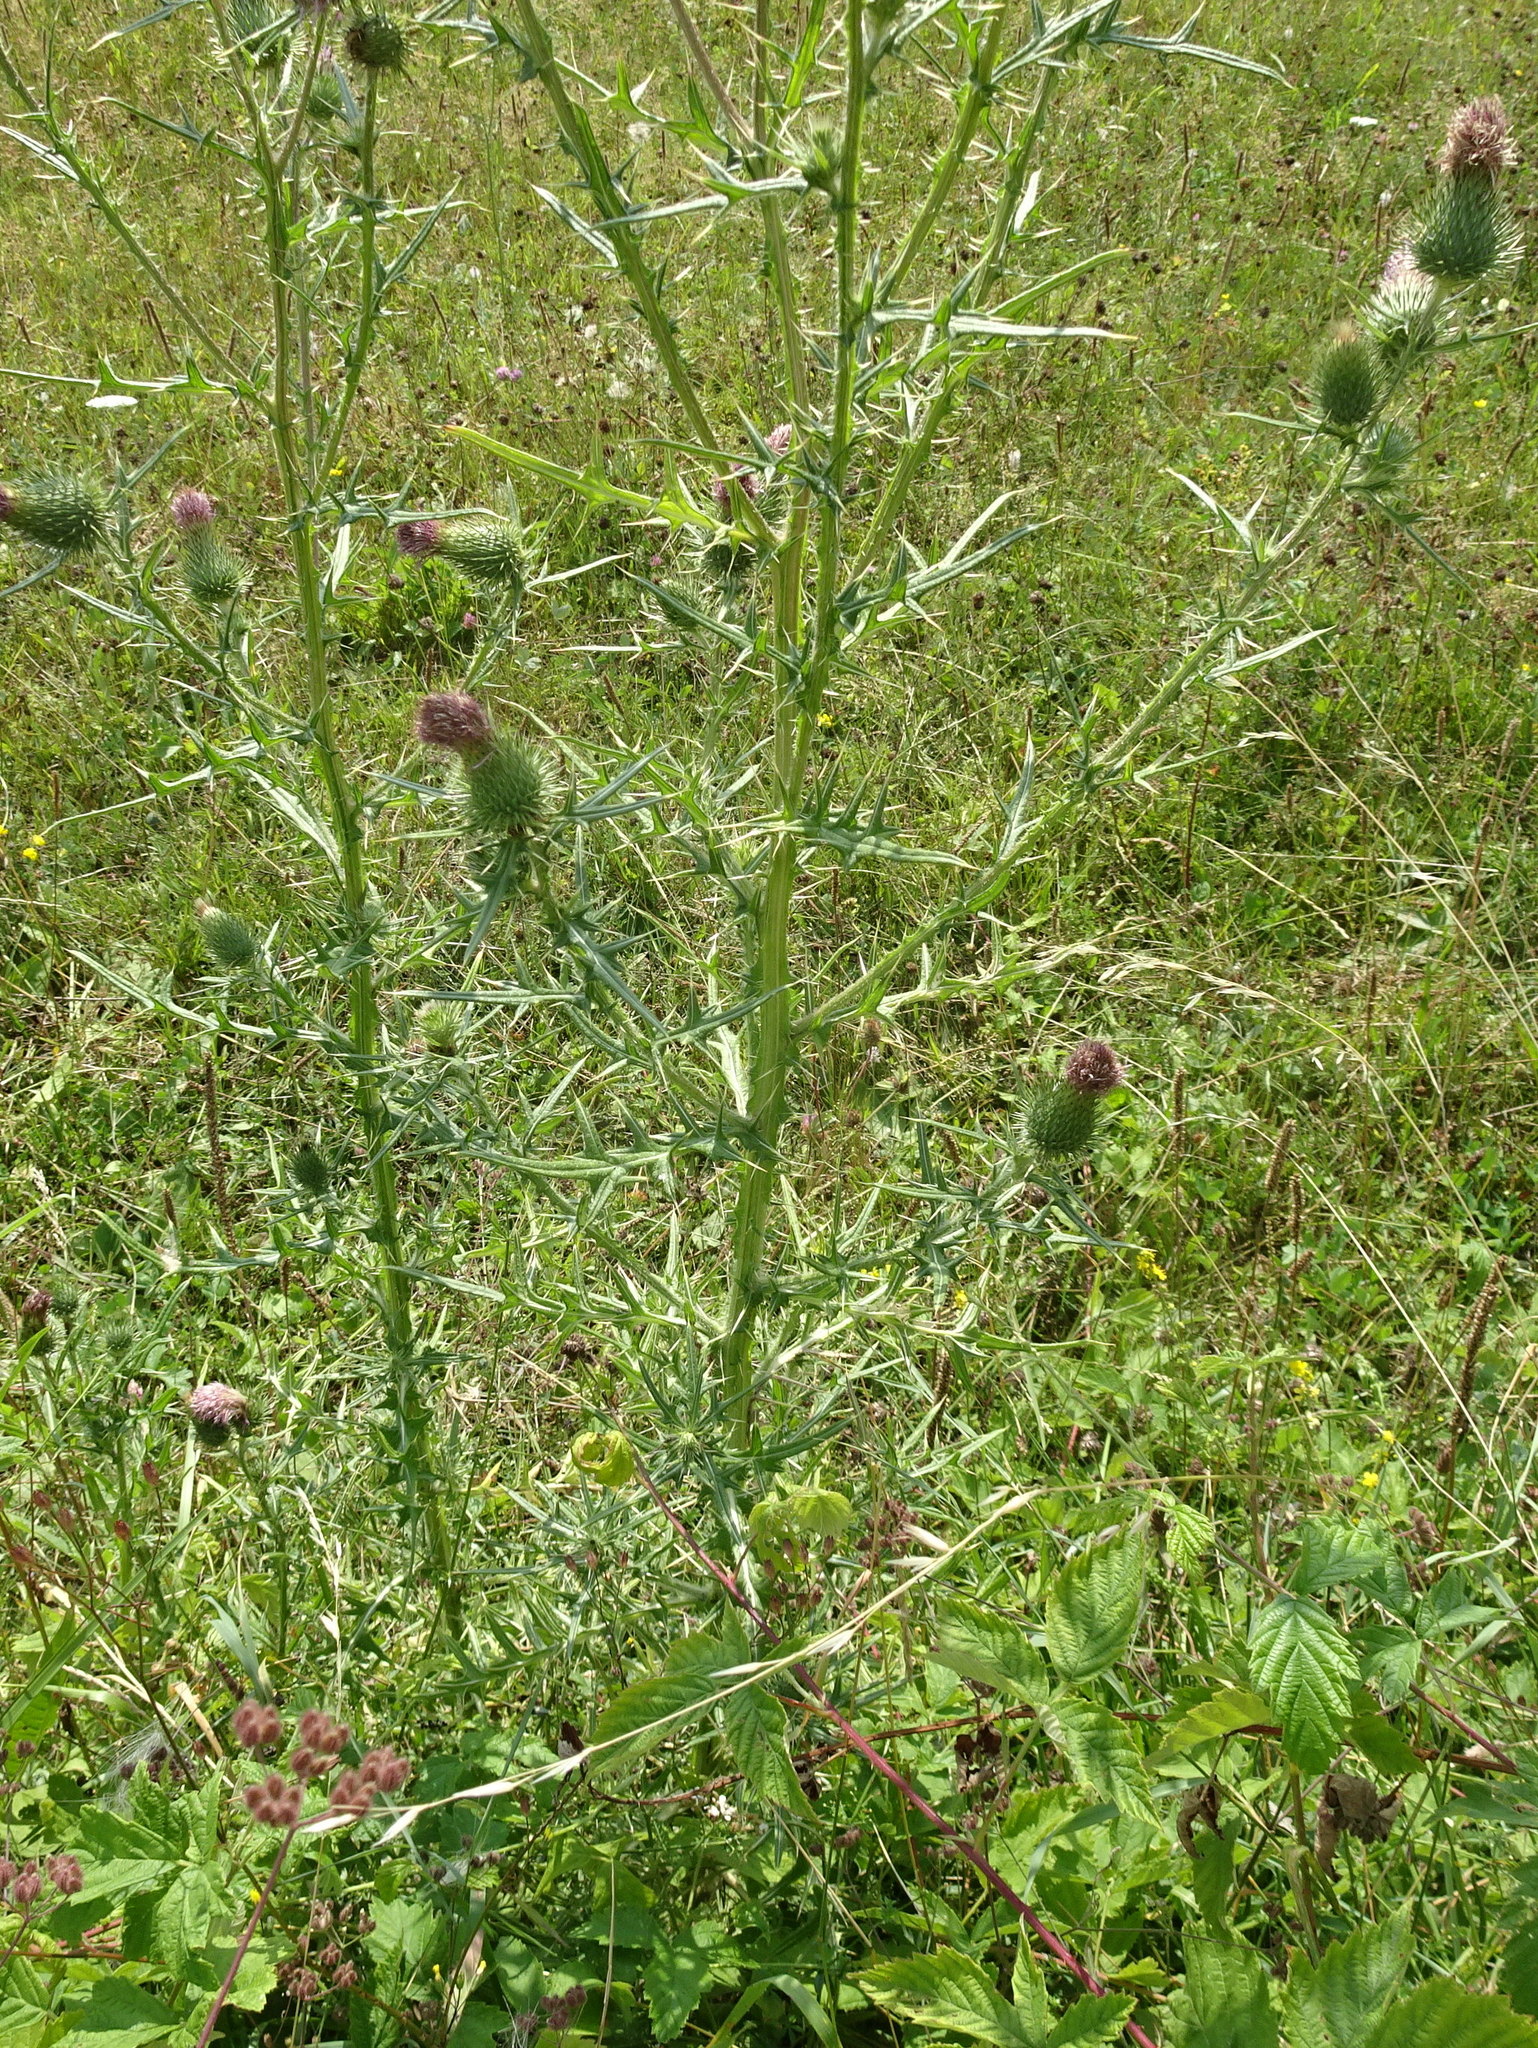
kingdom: Plantae
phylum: Tracheophyta
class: Magnoliopsida
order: Asterales
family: Asteraceae
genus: Cirsium
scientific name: Cirsium vulgare
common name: Bull thistle
